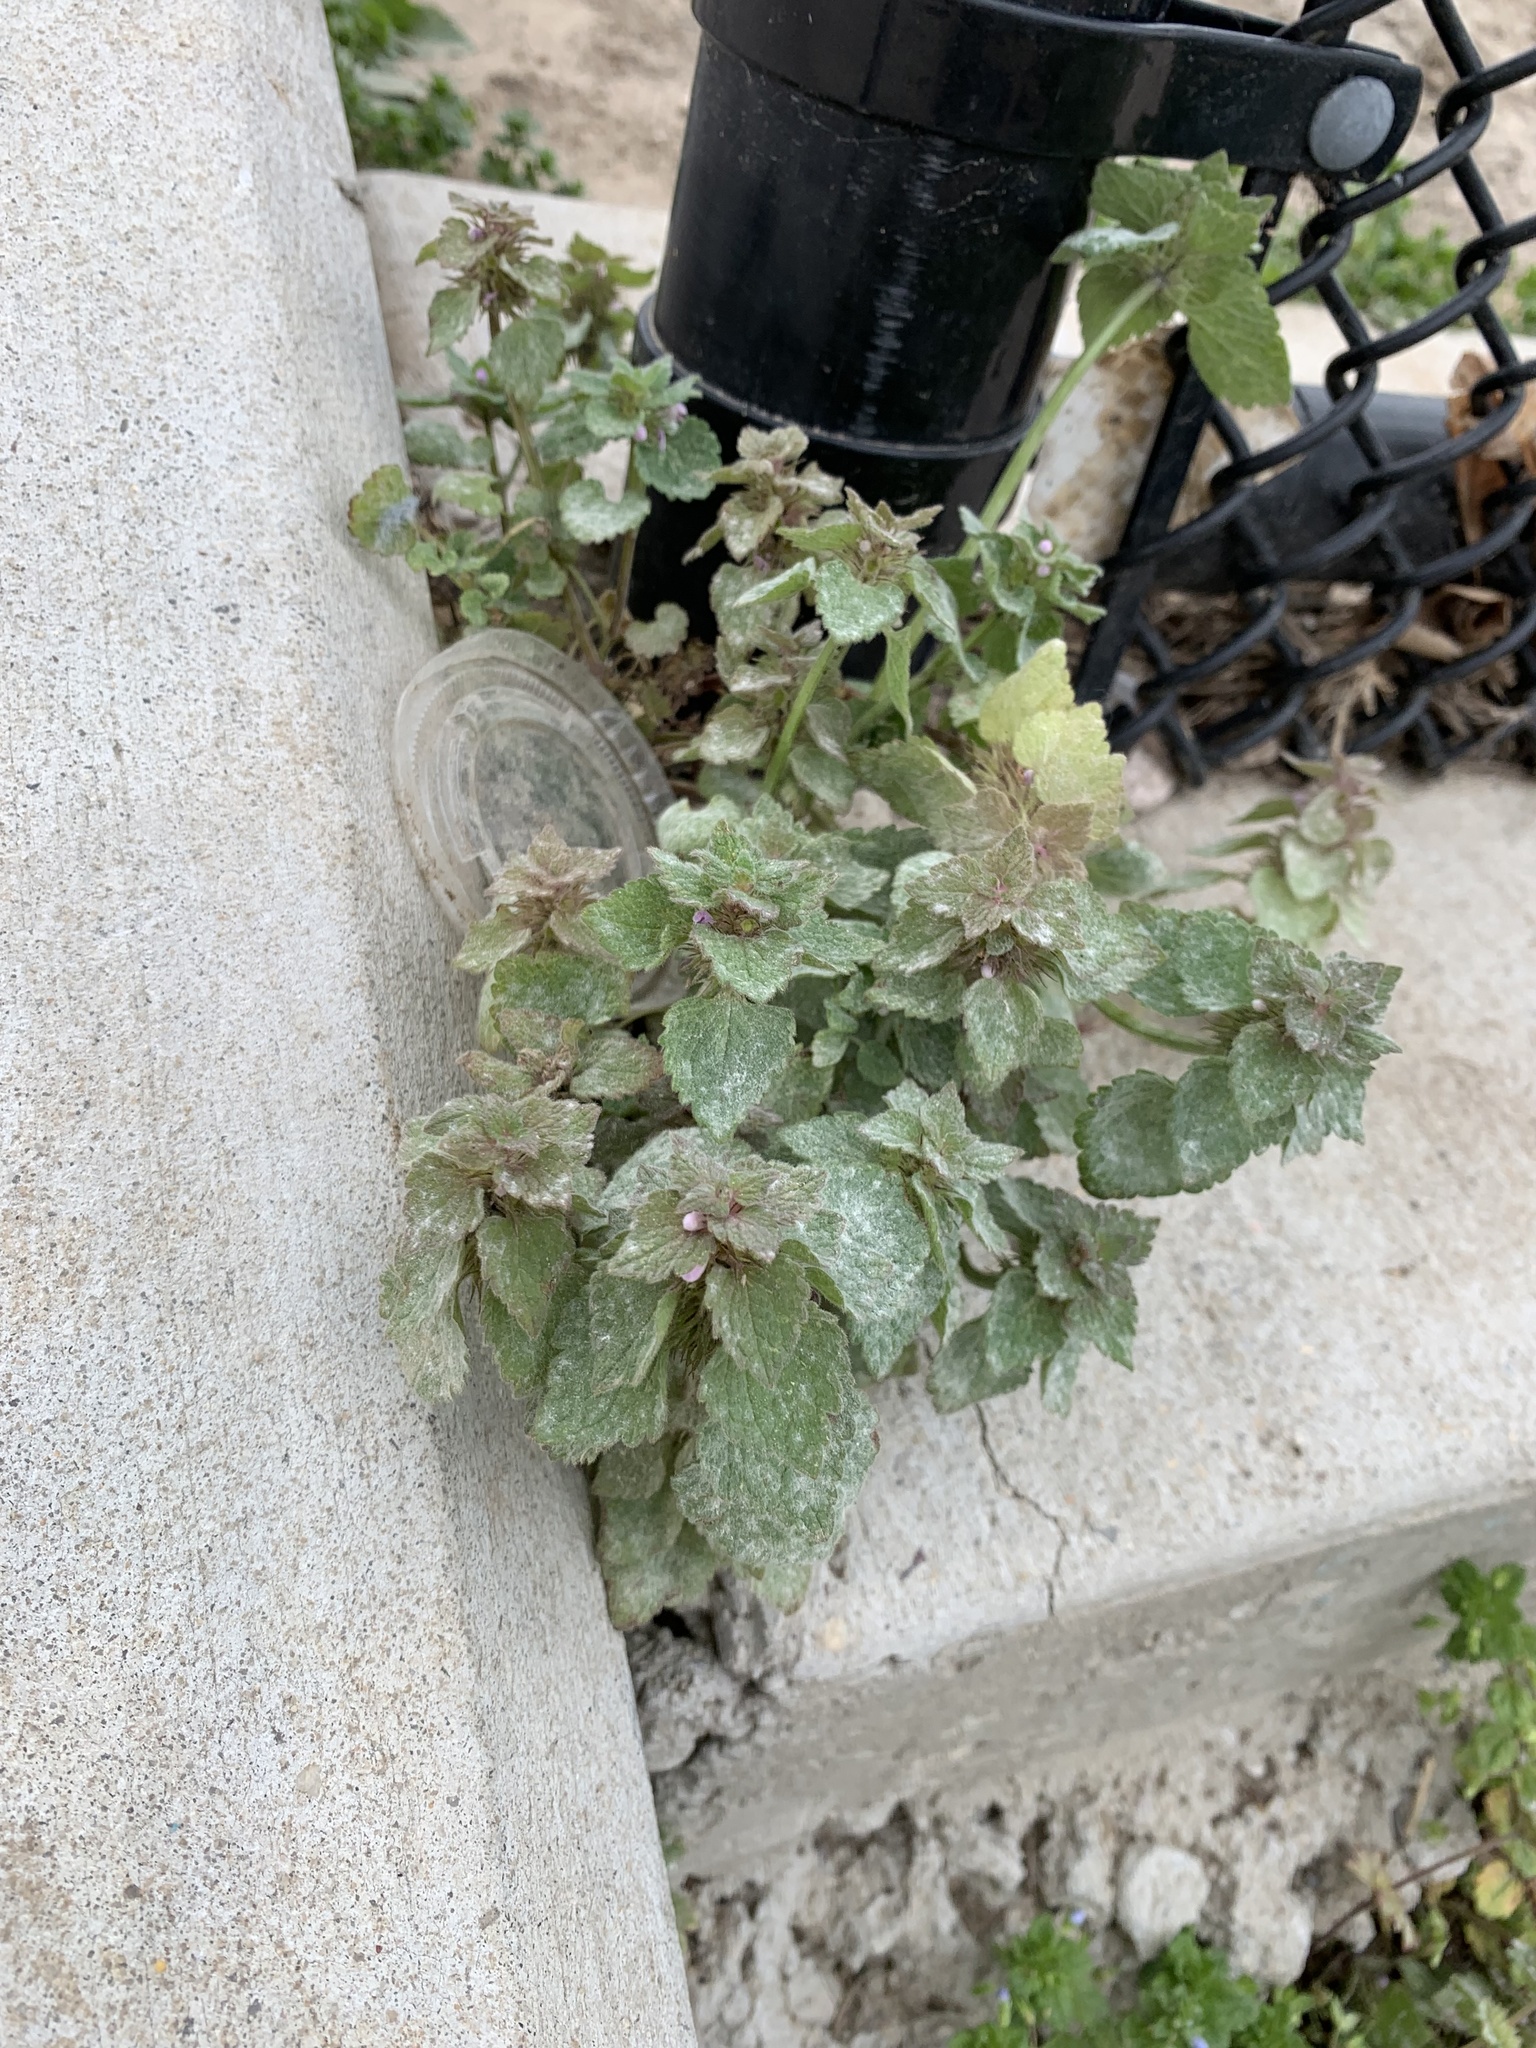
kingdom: Plantae
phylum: Tracheophyta
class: Magnoliopsida
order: Lamiales
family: Lamiaceae
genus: Lamium
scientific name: Lamium purpureum
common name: Red dead-nettle
